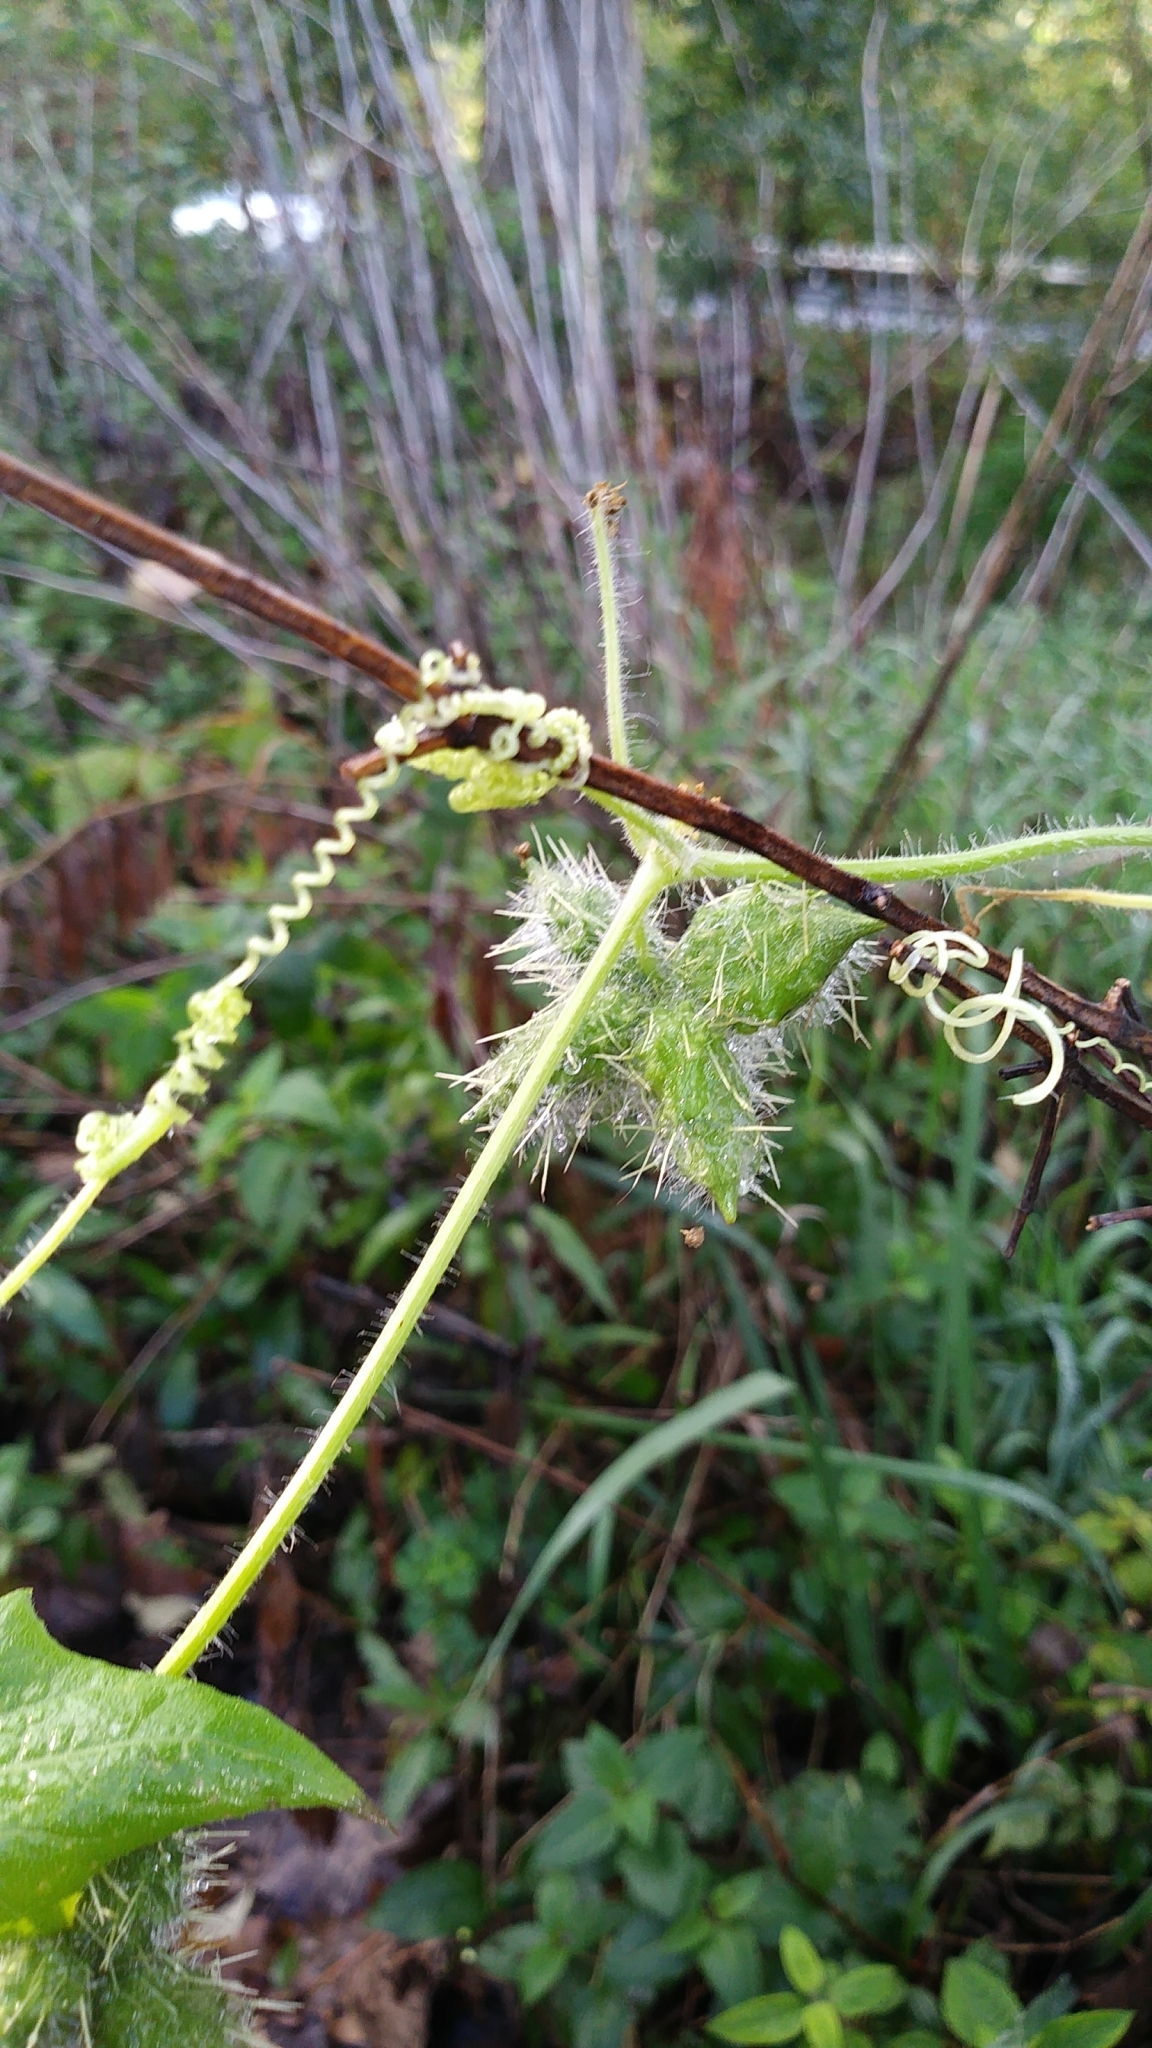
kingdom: Plantae
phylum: Tracheophyta
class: Magnoliopsida
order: Cucurbitales
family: Cucurbitaceae
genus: Sicyos
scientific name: Sicyos angulatus
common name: Angled burr cucumber
